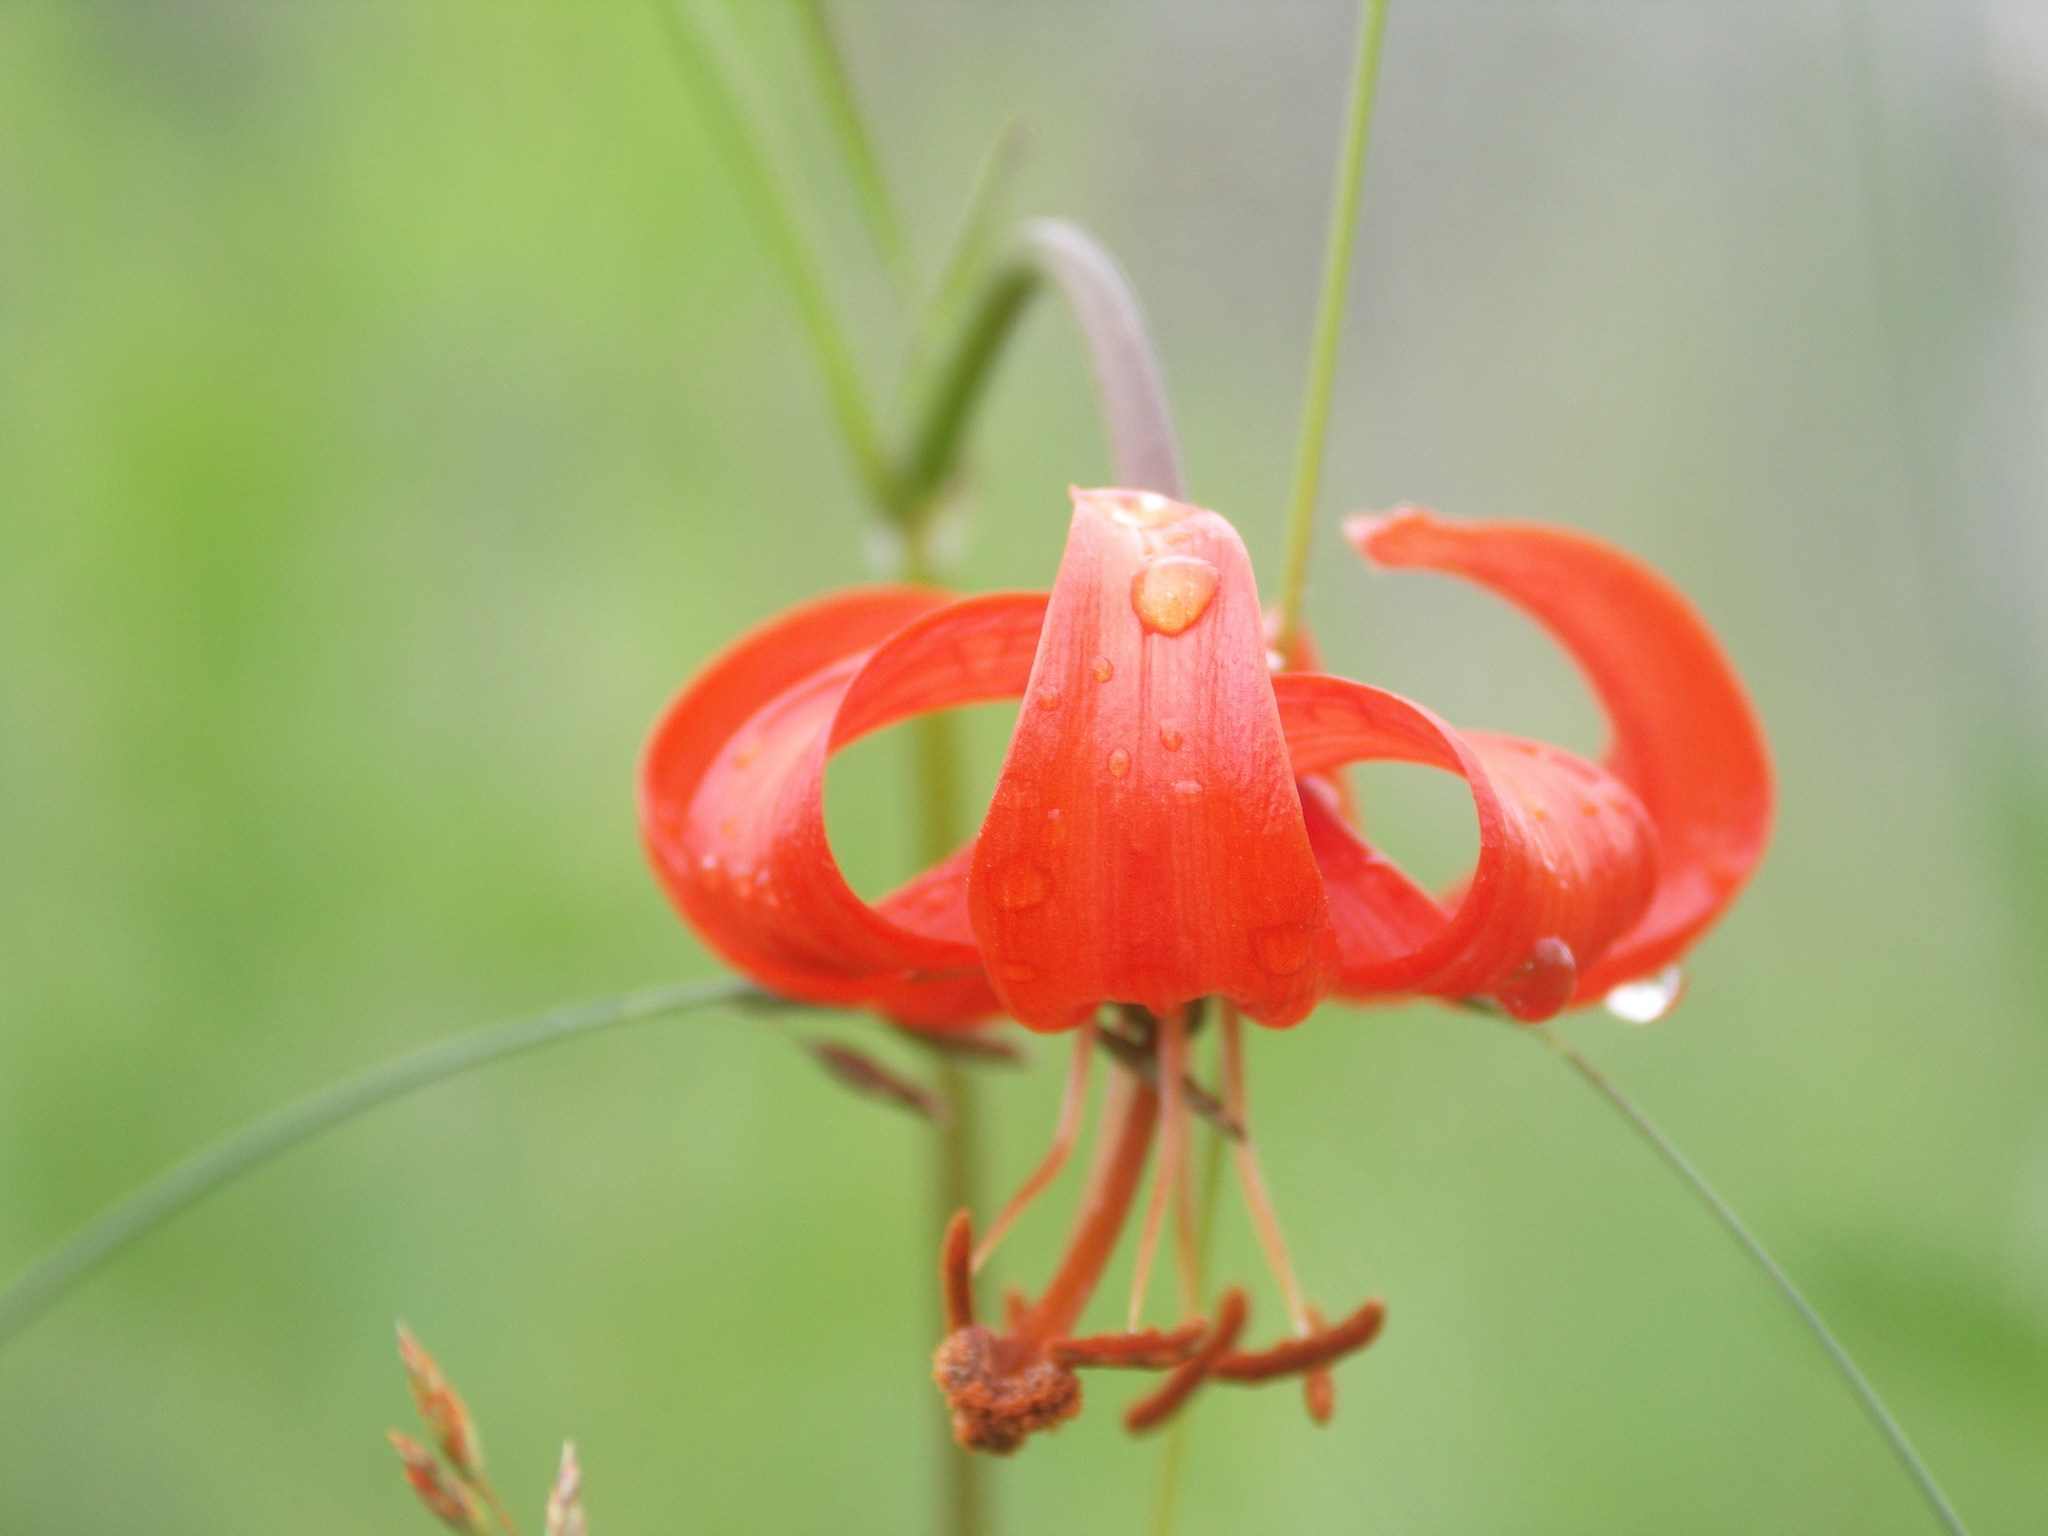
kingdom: Plantae
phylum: Tracheophyta
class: Liliopsida
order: Liliales
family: Liliaceae
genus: Lilium
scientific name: Lilium pumilum
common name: Coral lily
